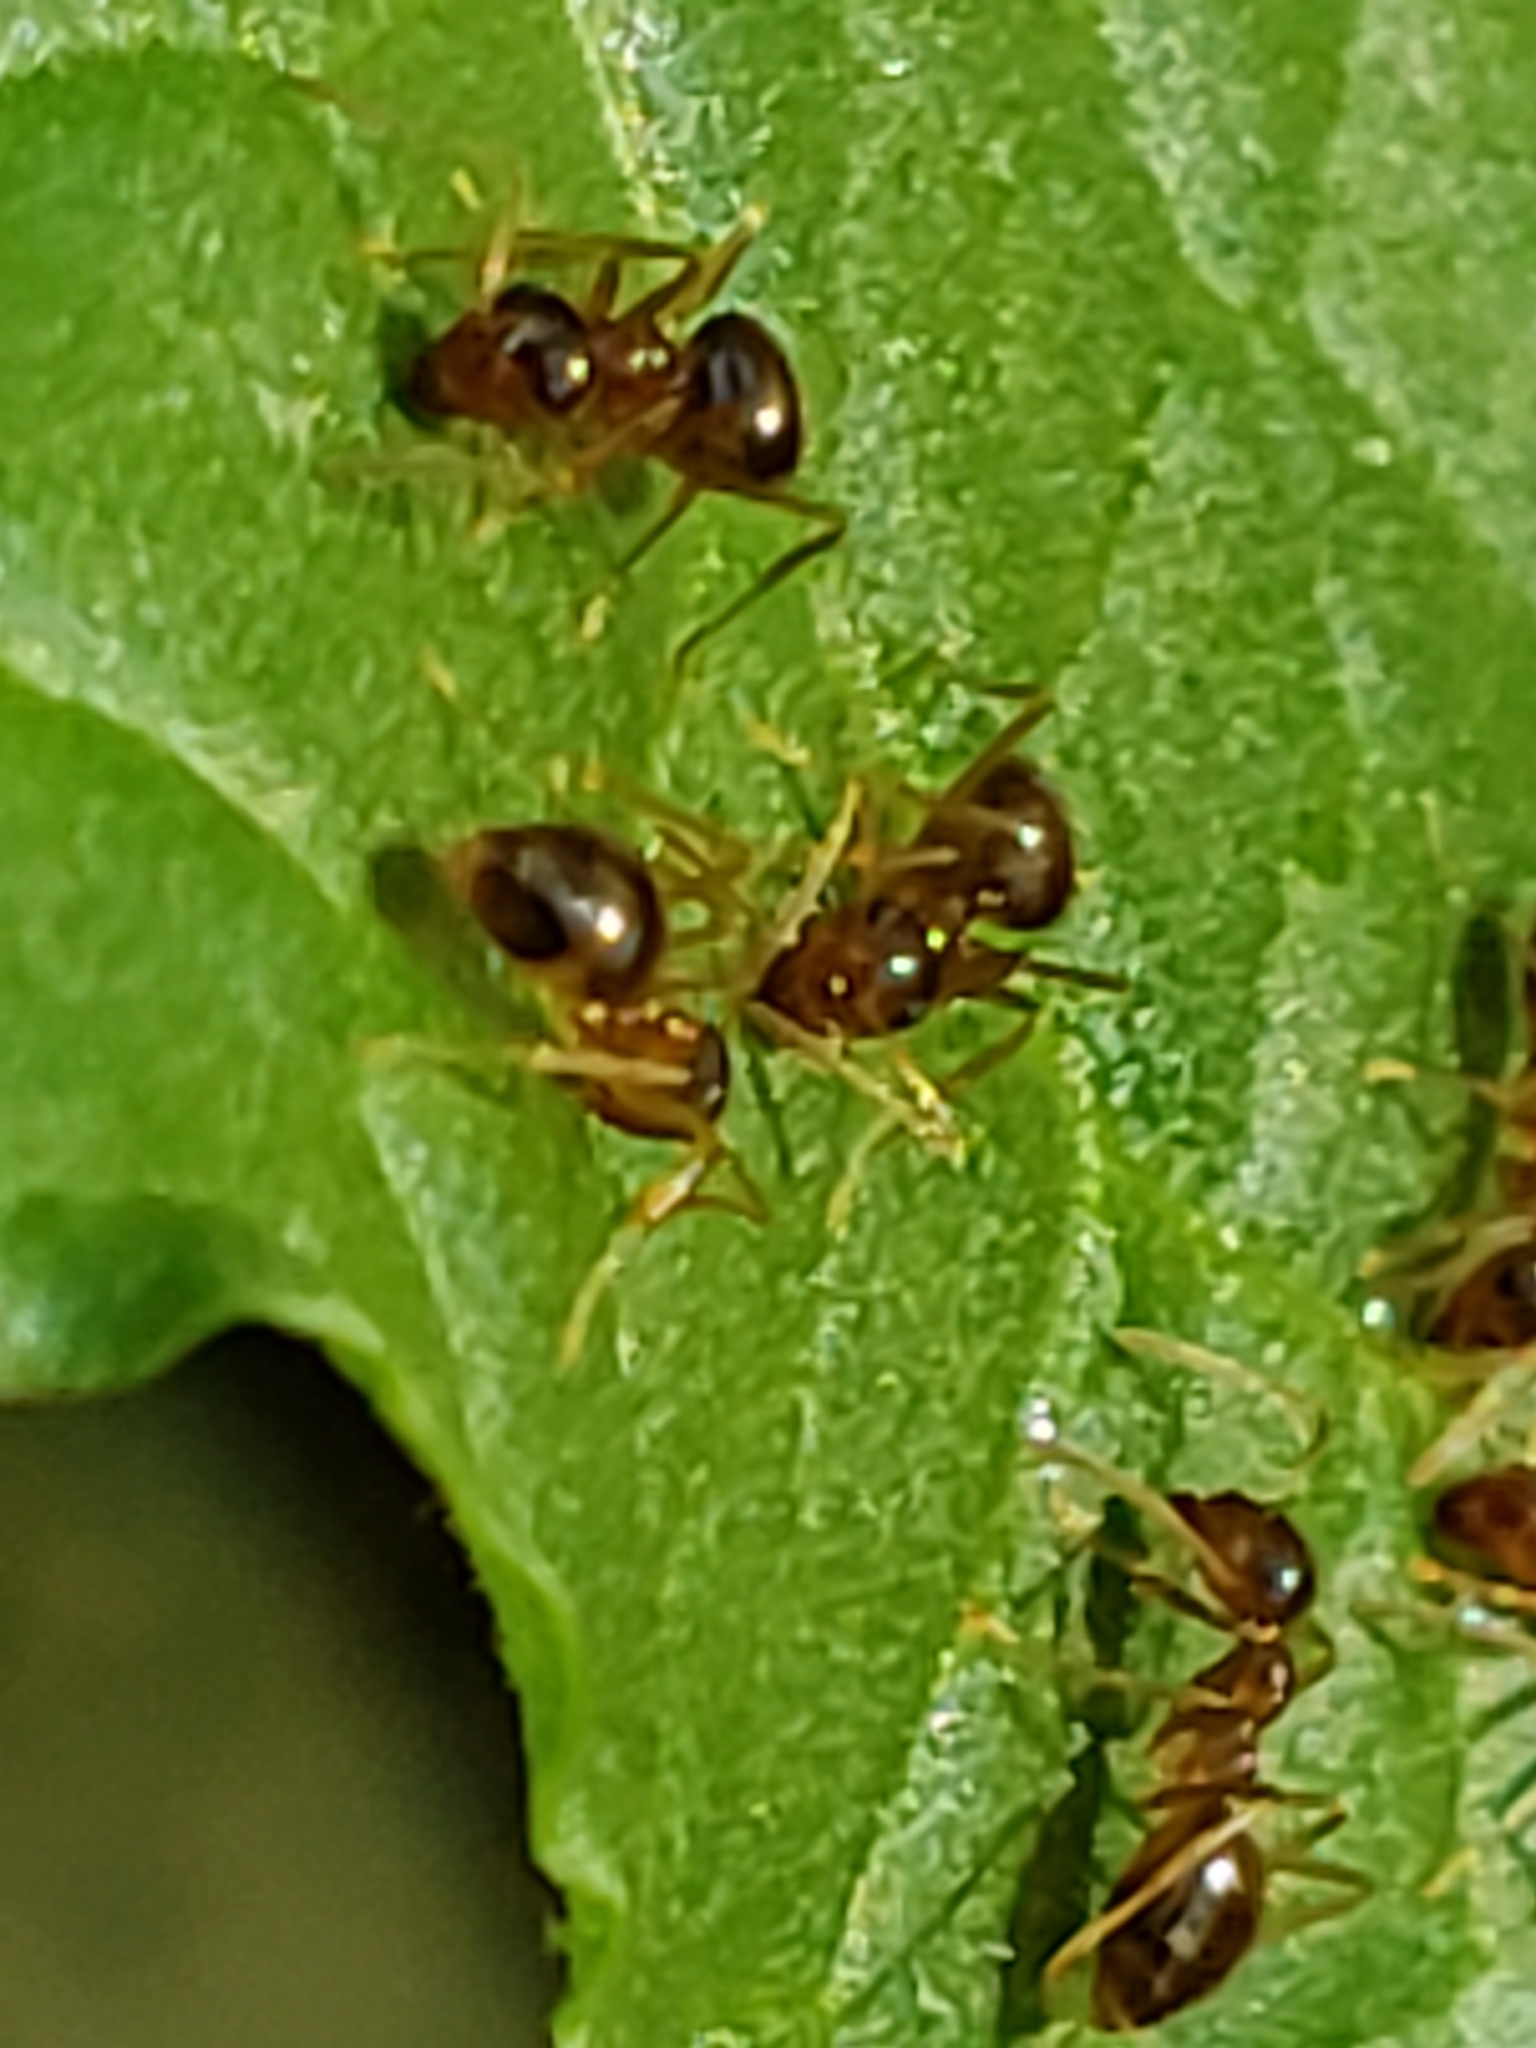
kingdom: Animalia
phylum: Arthropoda
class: Insecta
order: Hymenoptera
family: Formicidae
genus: Prenolepis
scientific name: Prenolepis imparis
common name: Small honey ant
